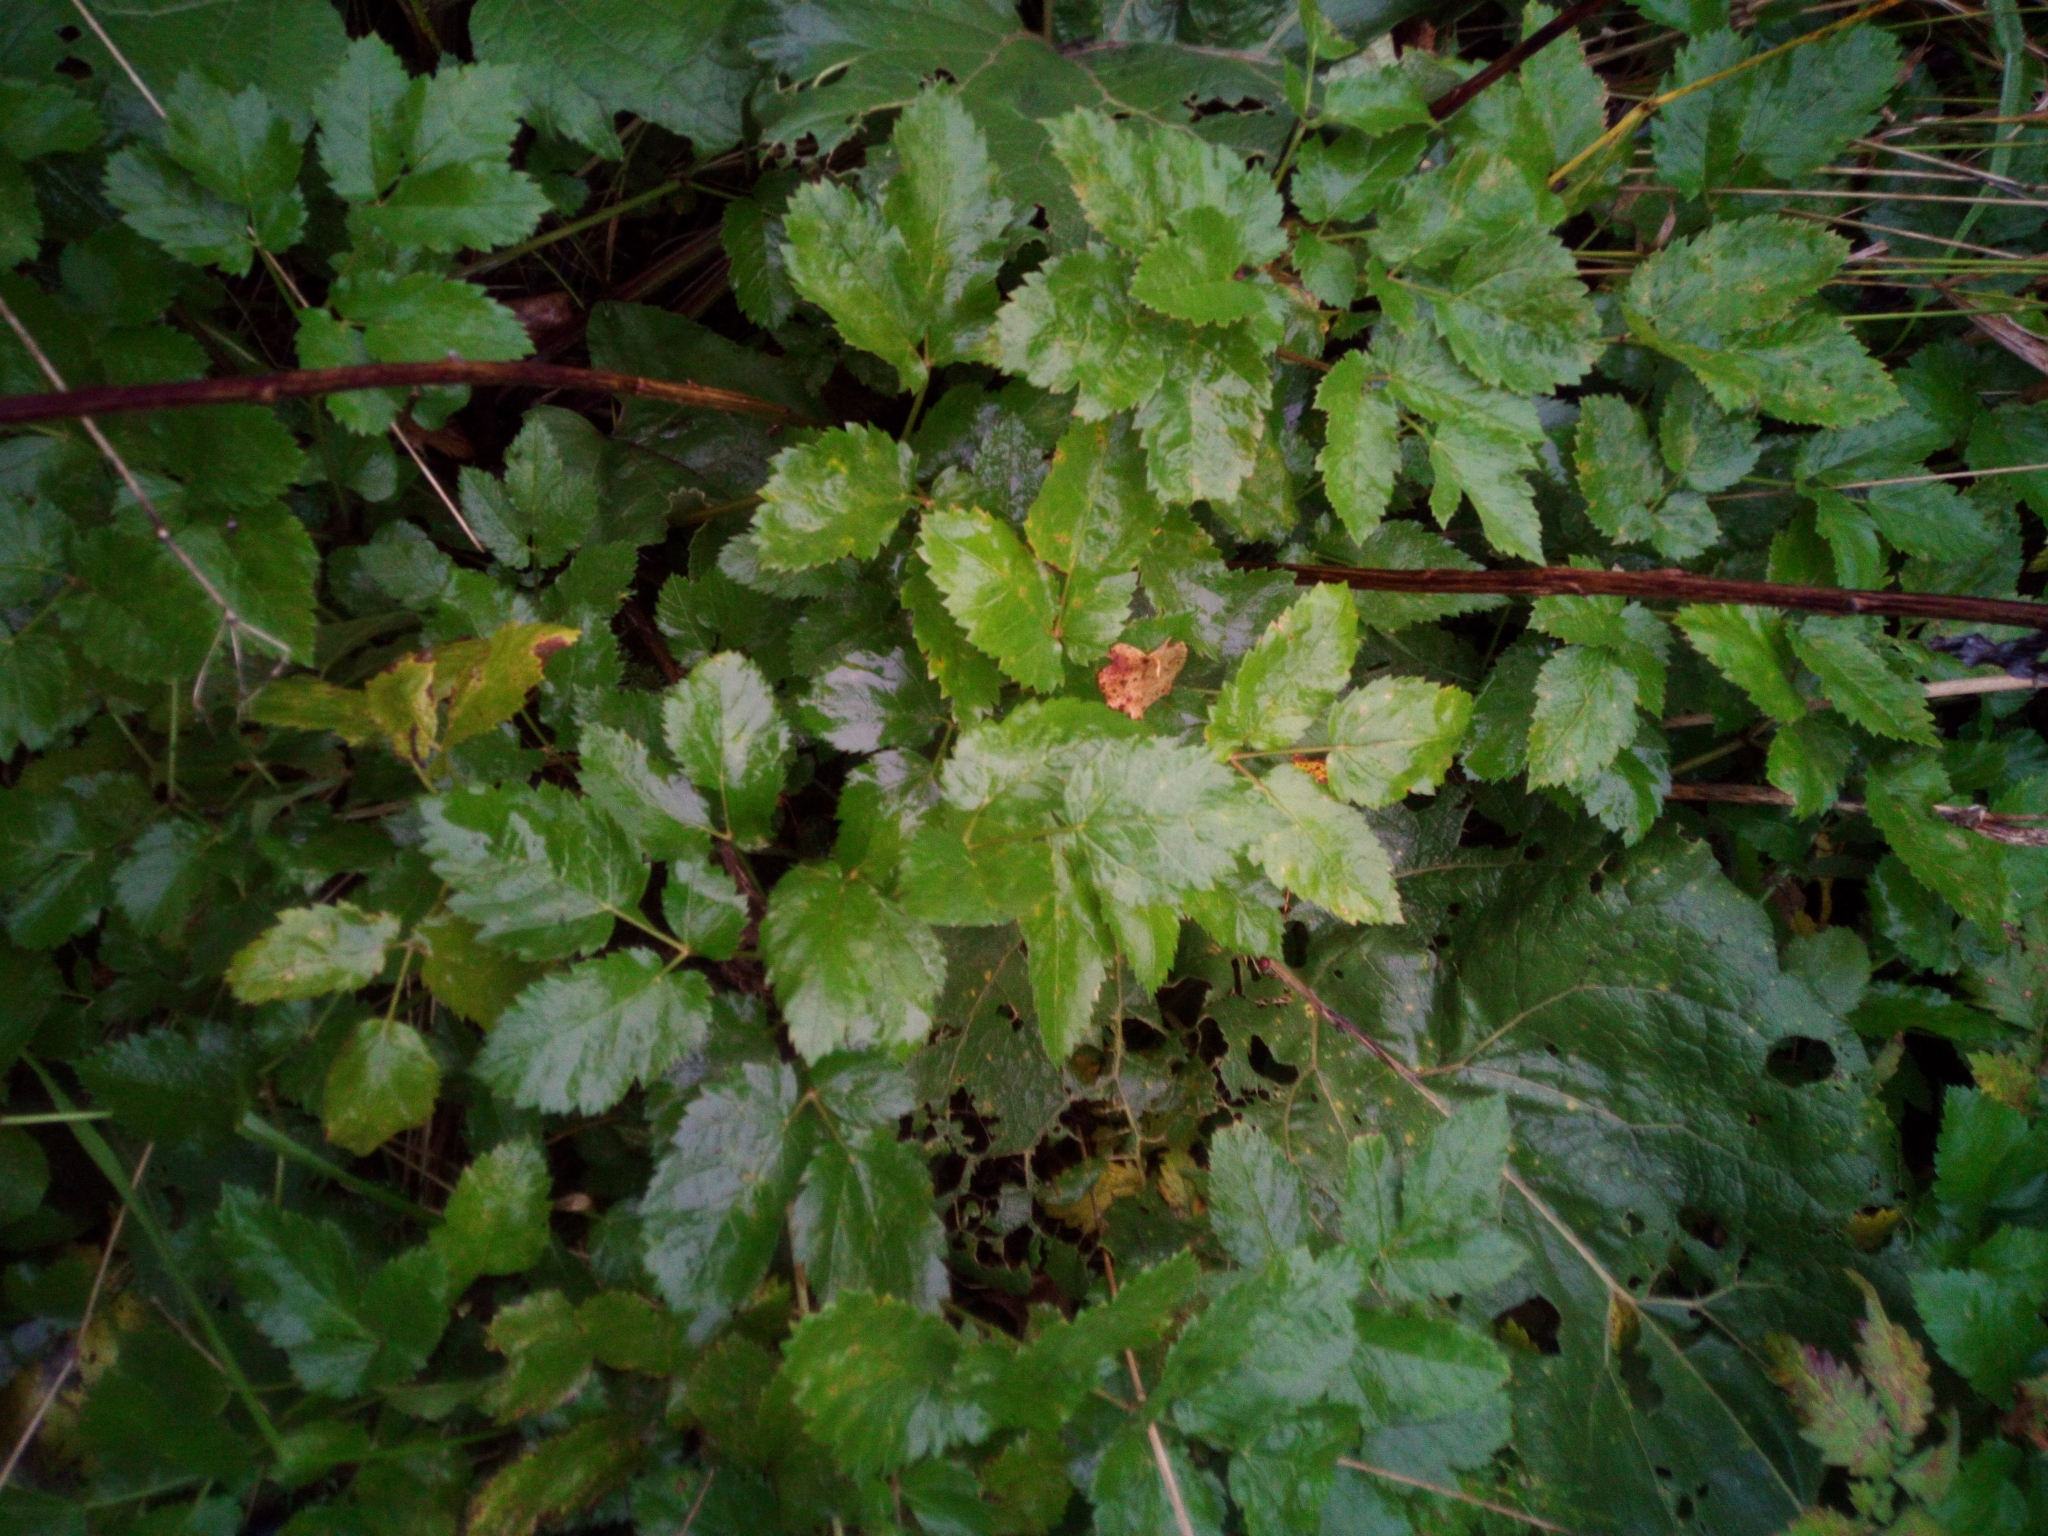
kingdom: Plantae
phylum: Tracheophyta
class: Magnoliopsida
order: Apiales
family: Apiaceae
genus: Aegopodium
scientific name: Aegopodium podagraria
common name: Ground-elder
